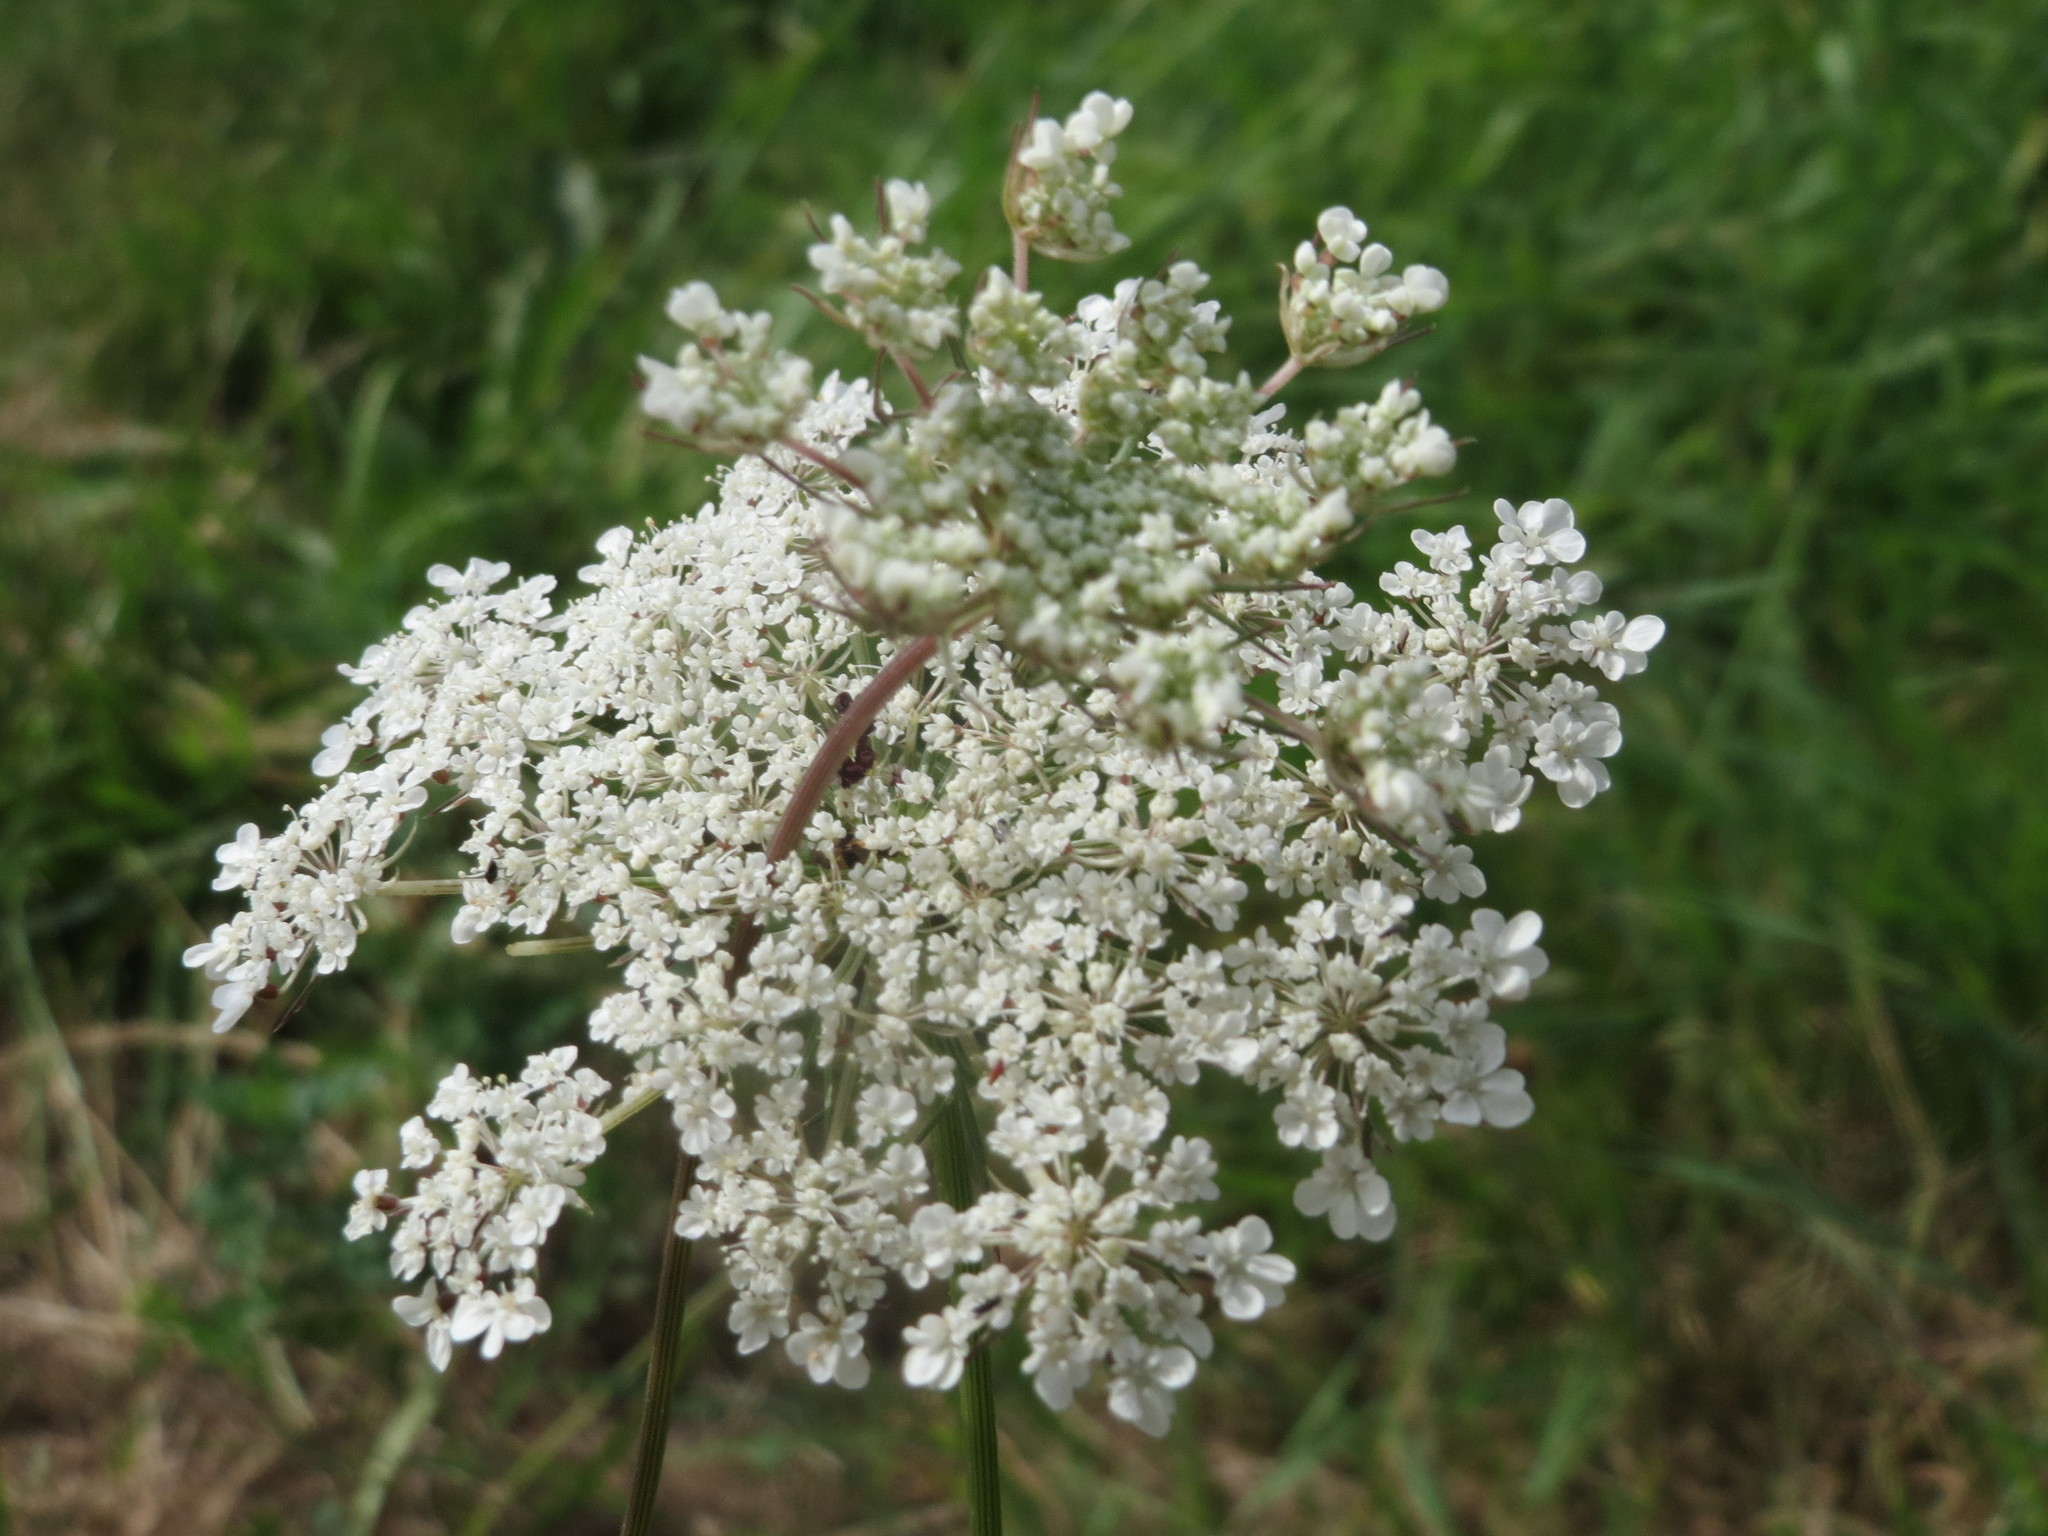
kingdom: Plantae
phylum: Tracheophyta
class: Magnoliopsida
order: Apiales
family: Apiaceae
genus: Daucus
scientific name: Daucus carota
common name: Wild carrot
